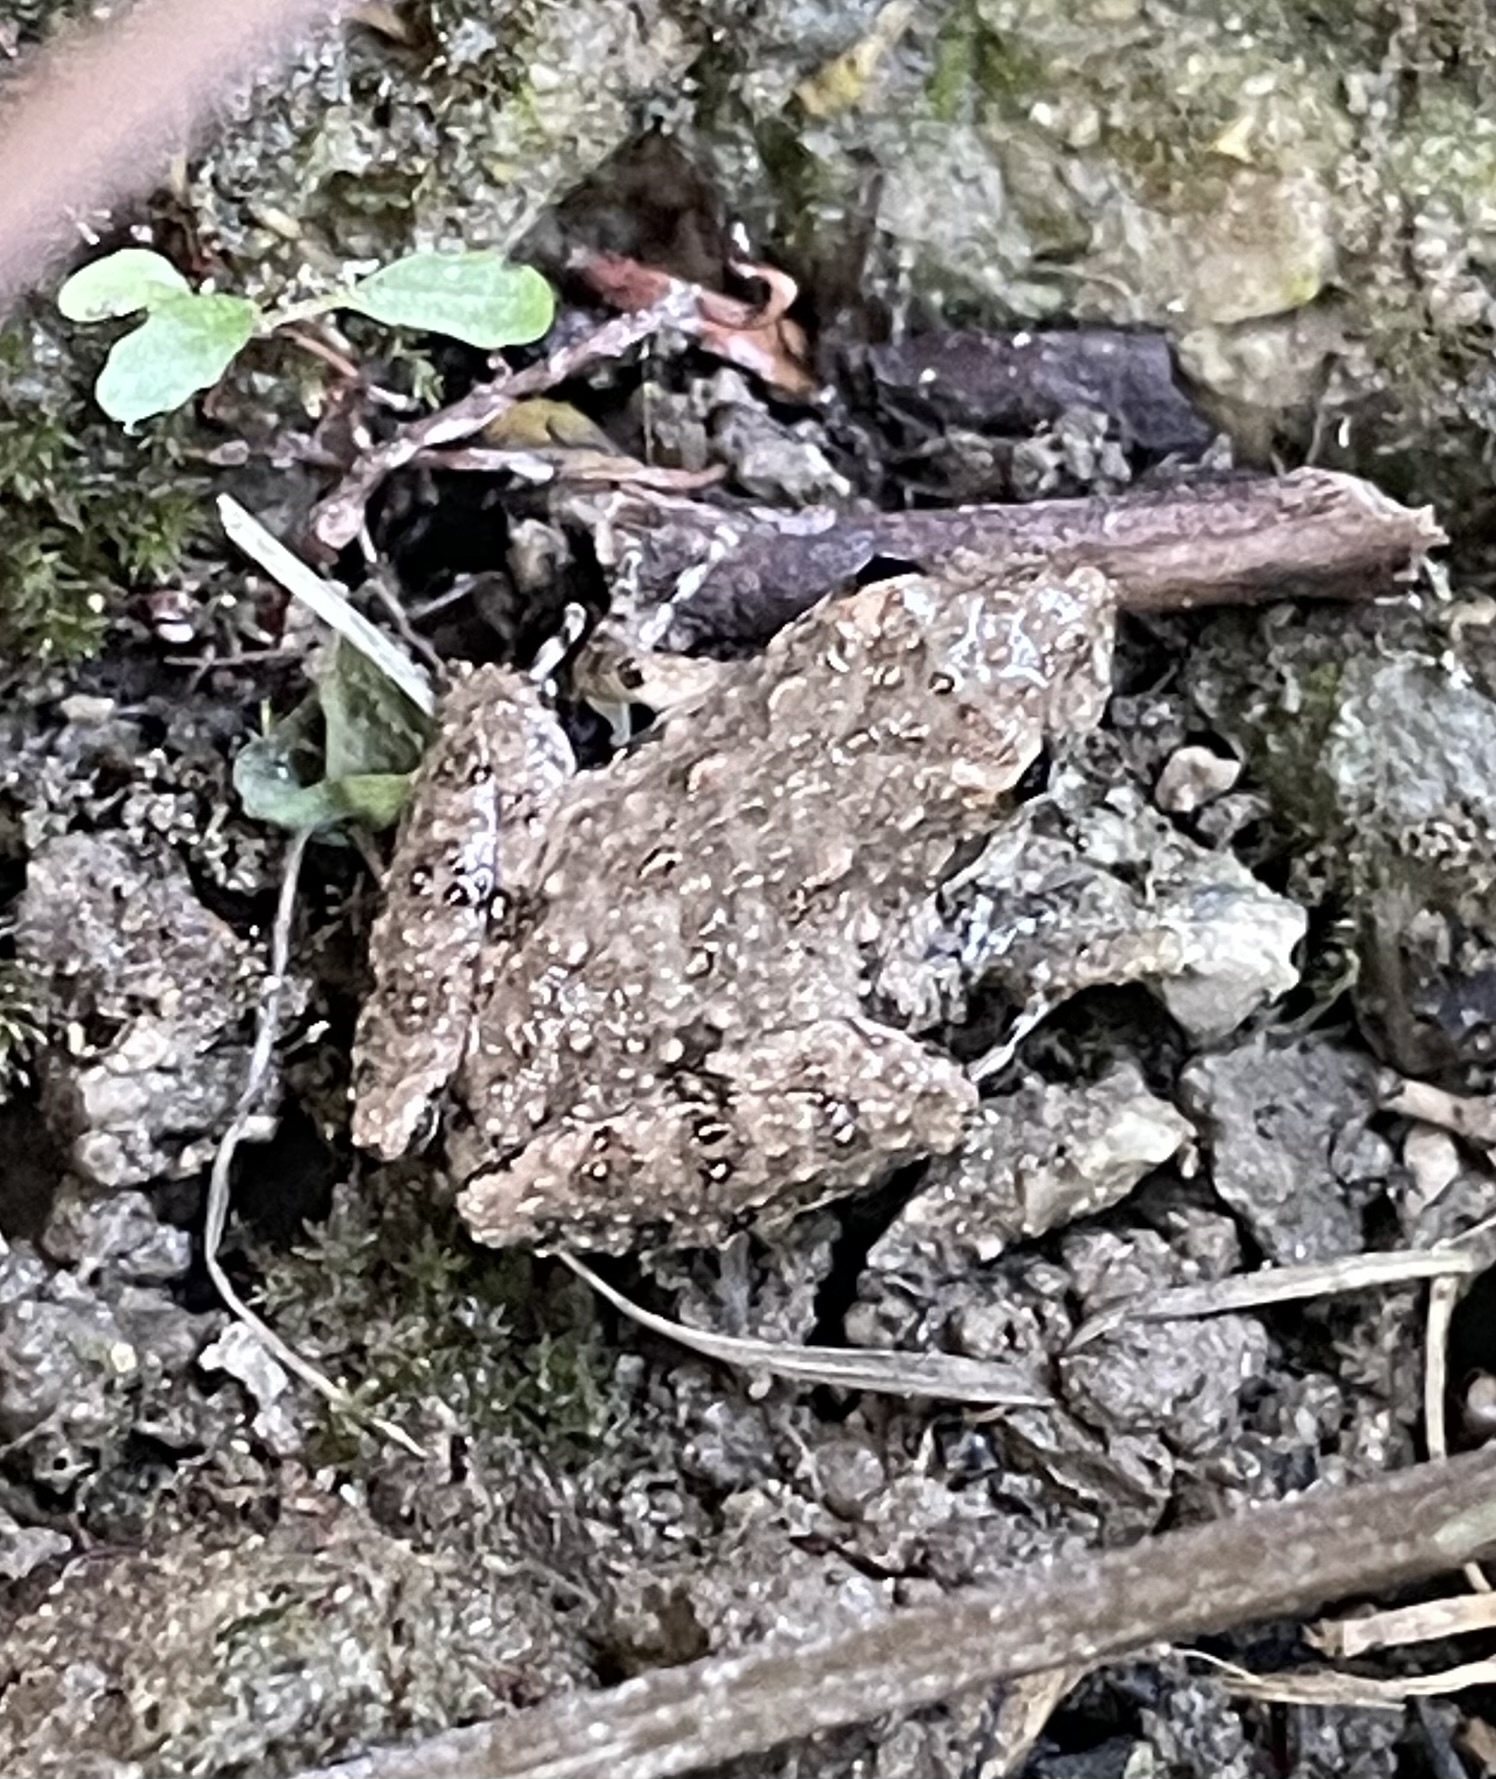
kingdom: Animalia
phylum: Chordata
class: Amphibia
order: Anura
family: Hylidae
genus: Acris
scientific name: Acris blanchardi
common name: Blanchard's cricket frog
